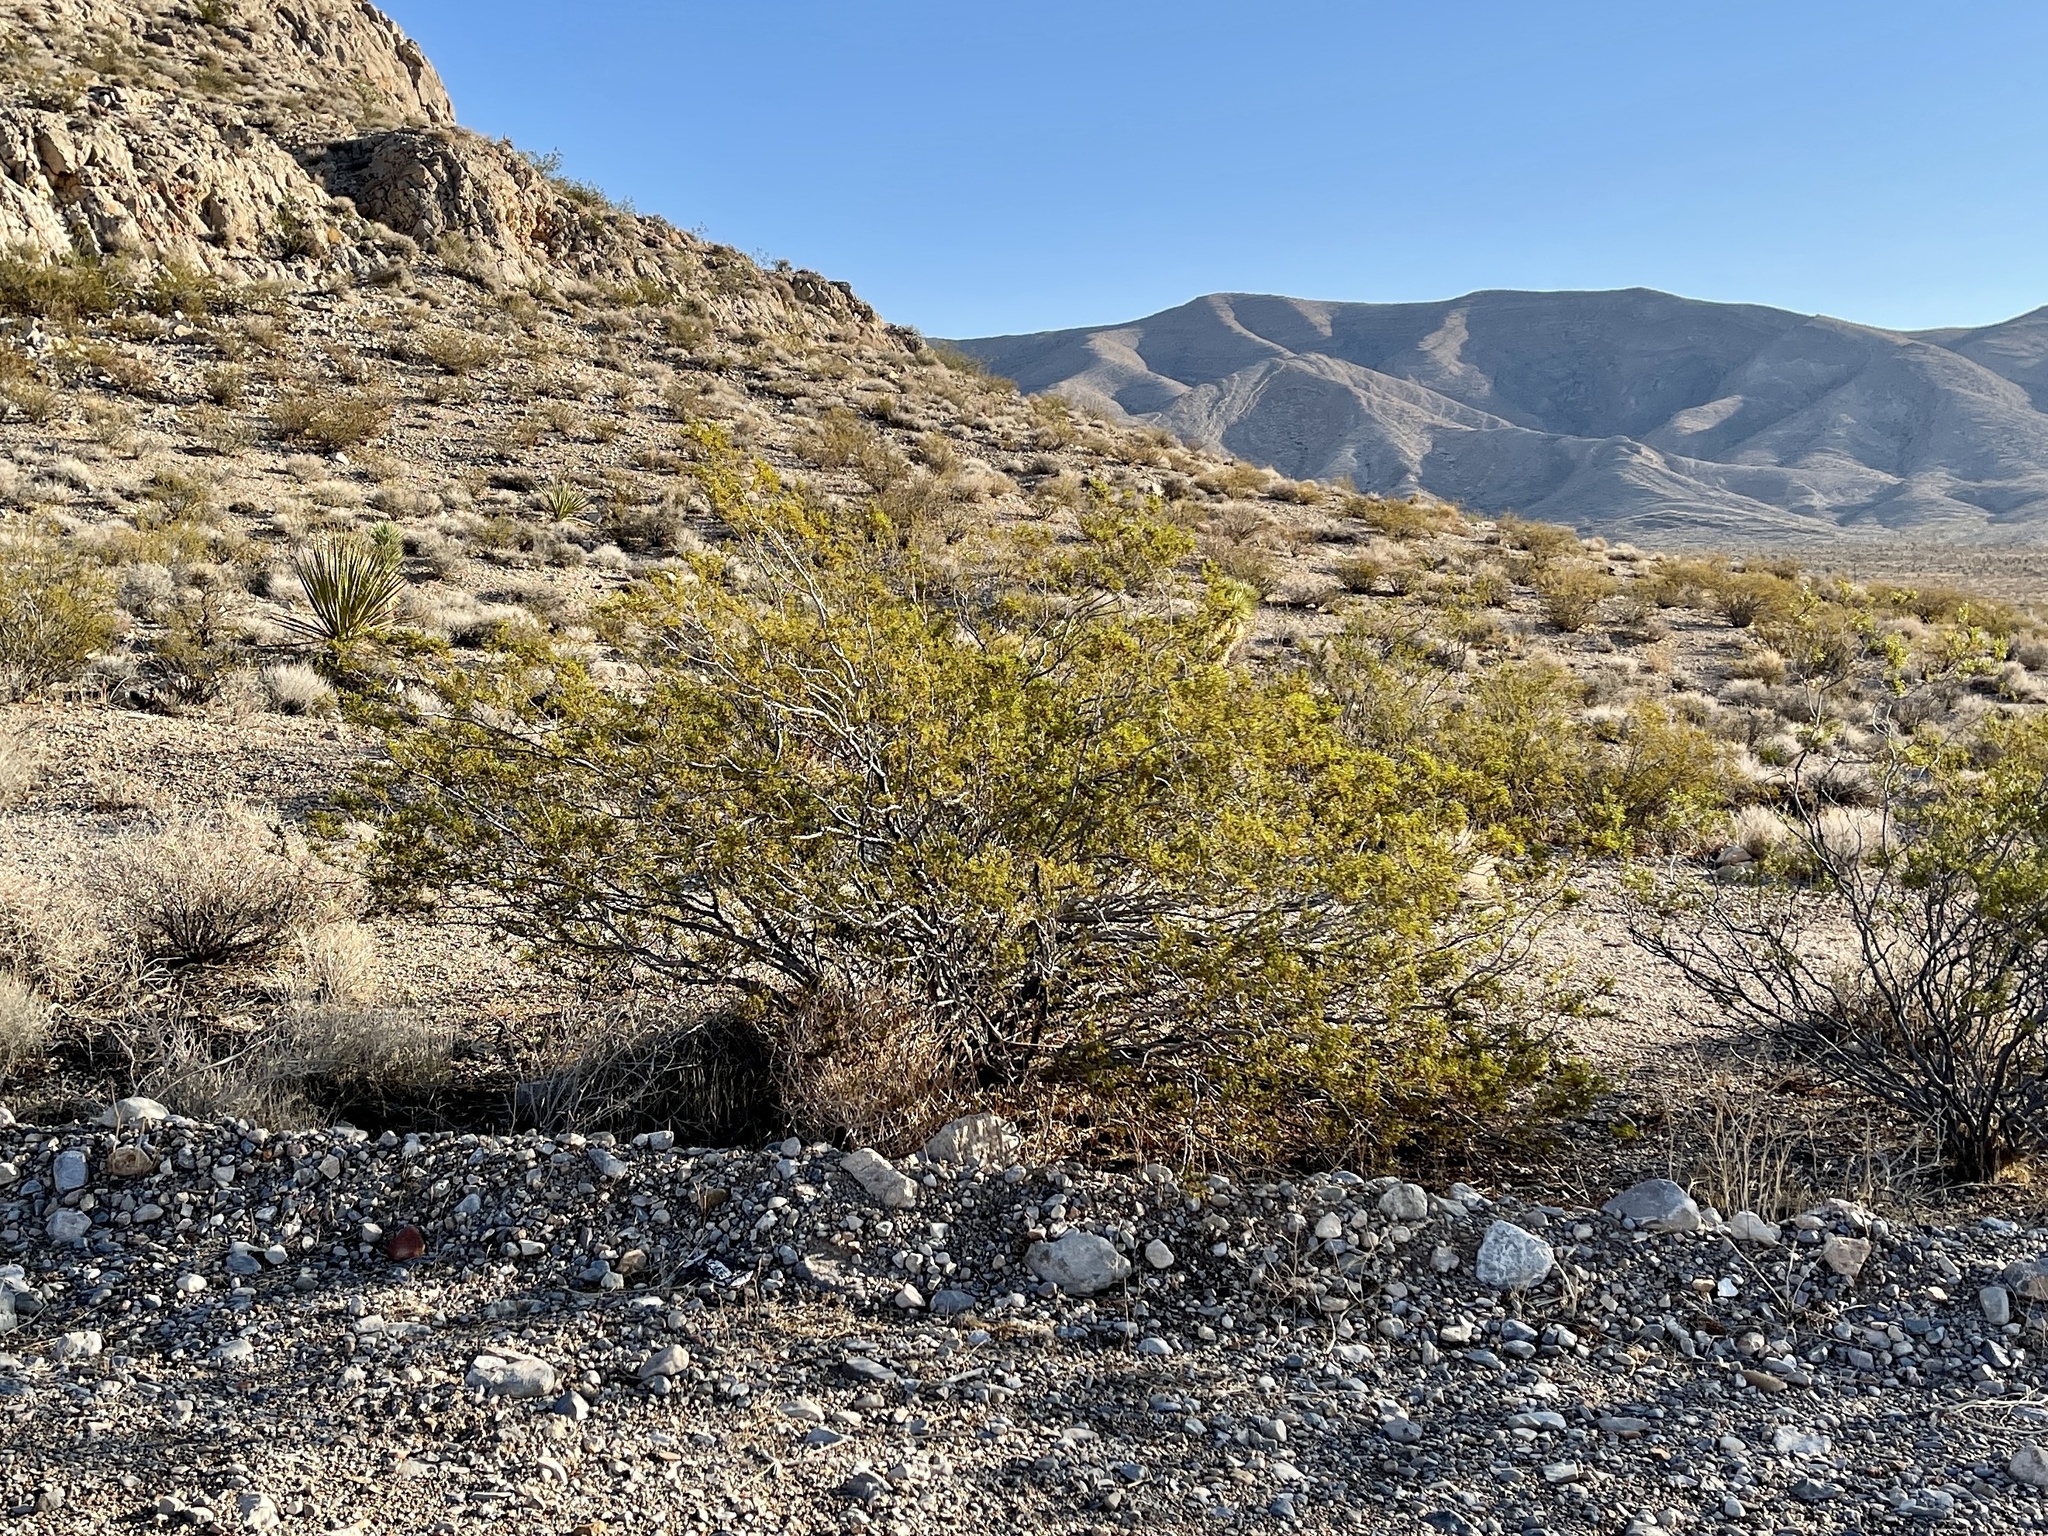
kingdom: Plantae
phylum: Tracheophyta
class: Magnoliopsida
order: Zygophyllales
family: Zygophyllaceae
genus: Larrea
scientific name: Larrea tridentata
